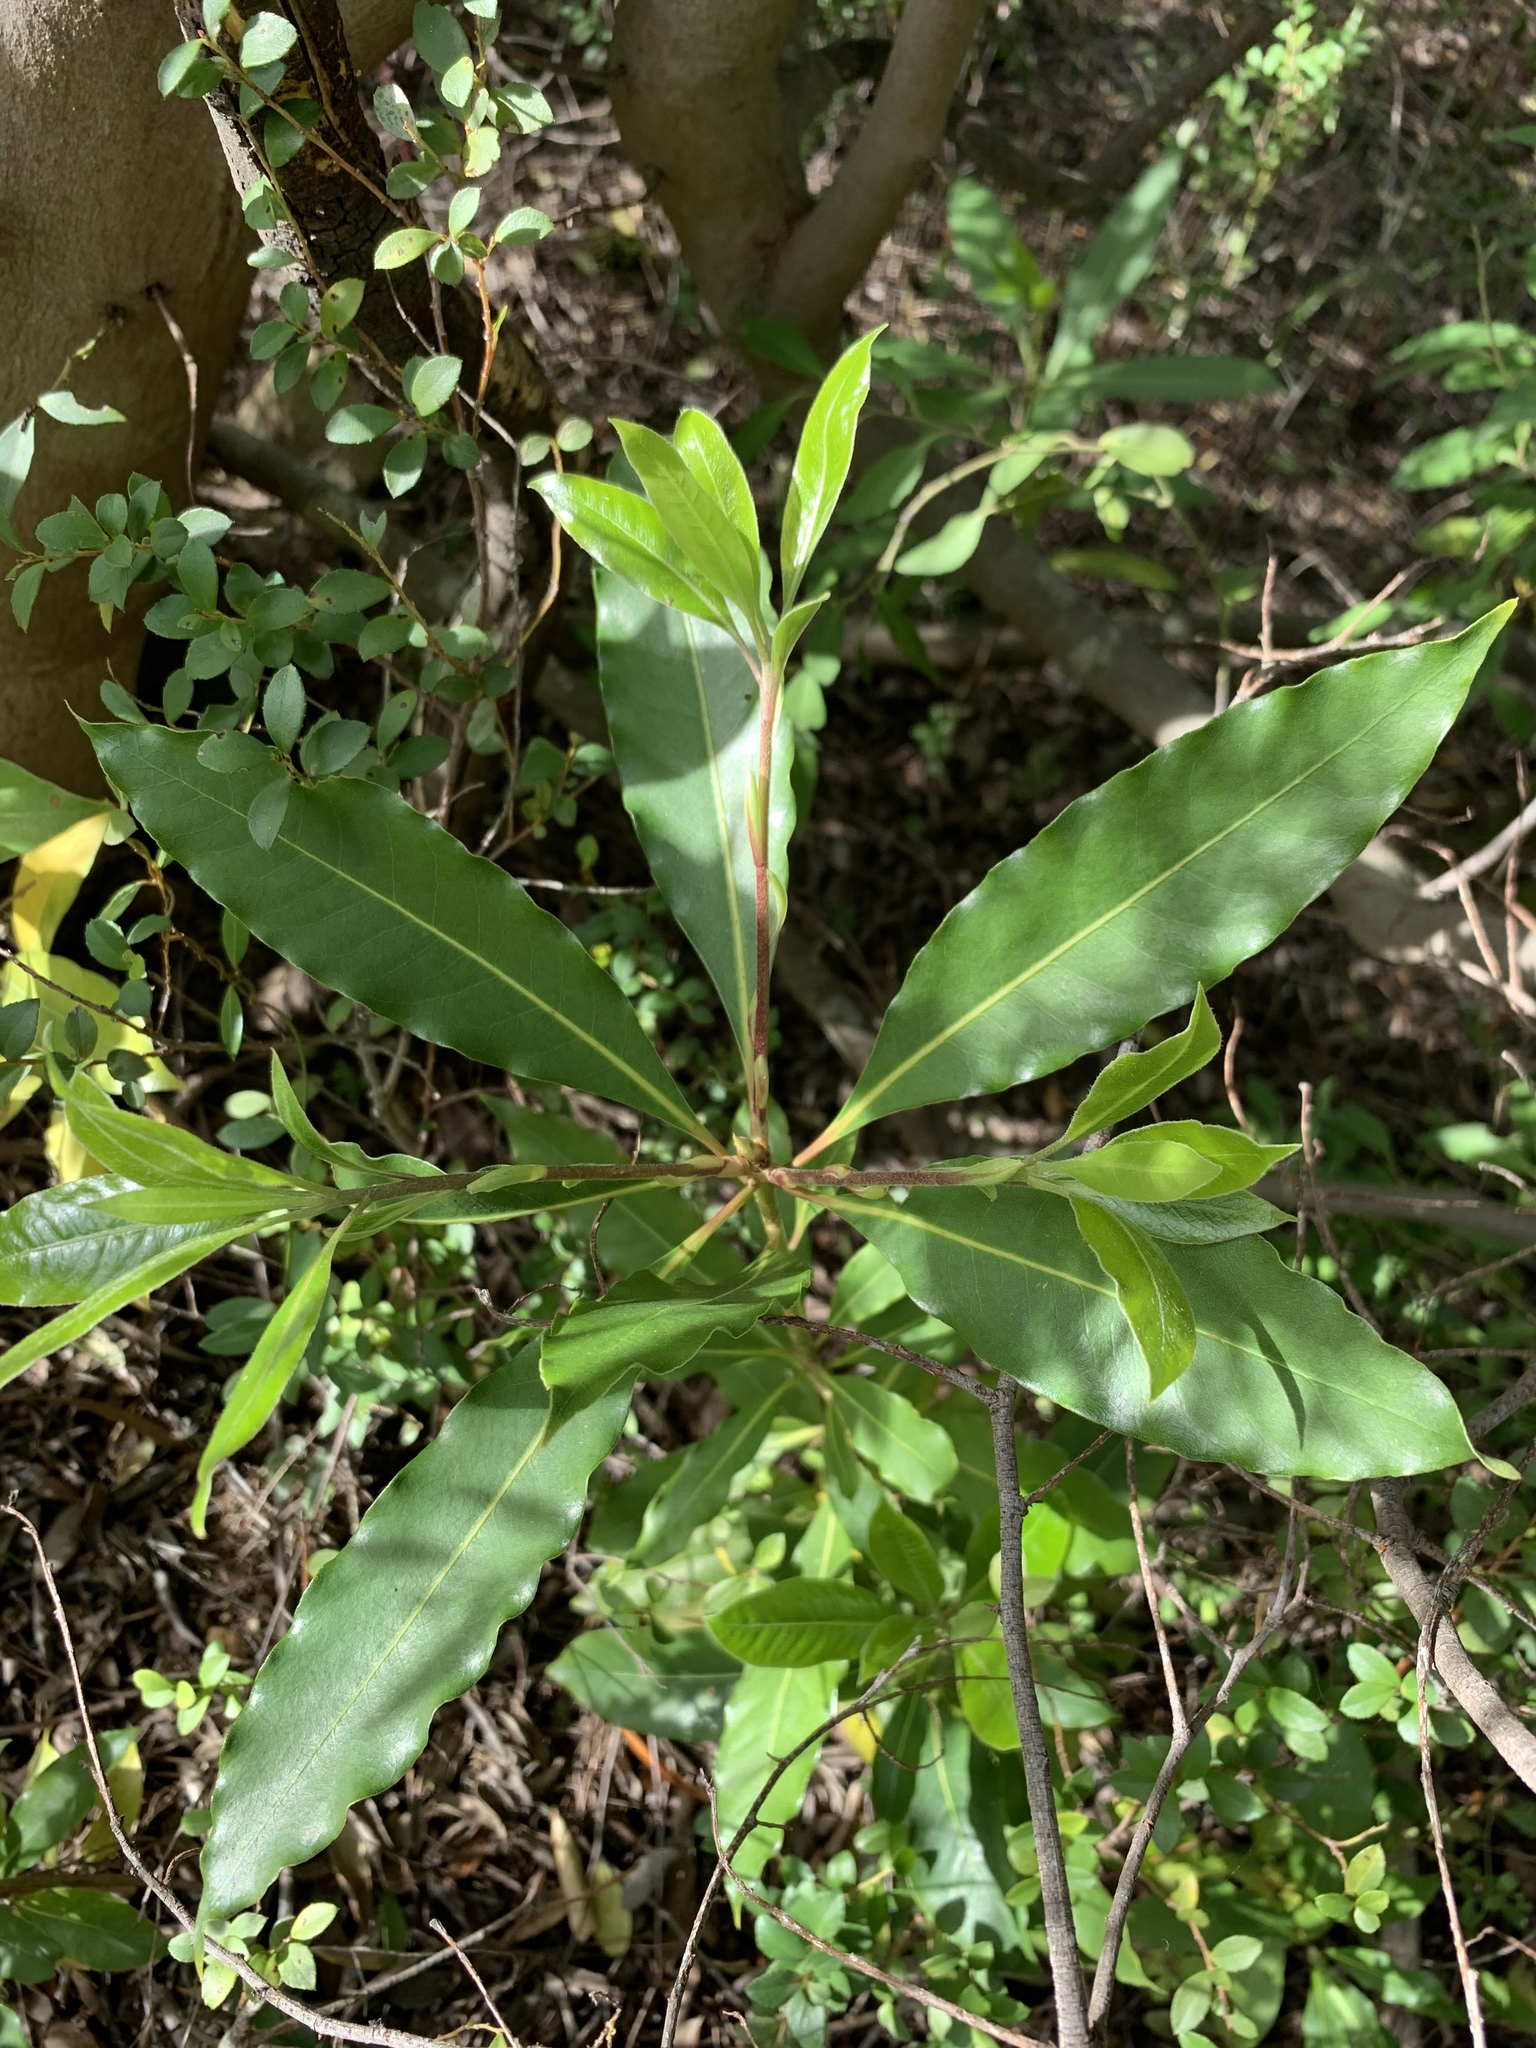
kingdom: Plantae
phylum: Tracheophyta
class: Magnoliopsida
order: Apiales
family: Pittosporaceae
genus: Pittosporum
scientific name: Pittosporum undulatum
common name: Australian cheesewood
